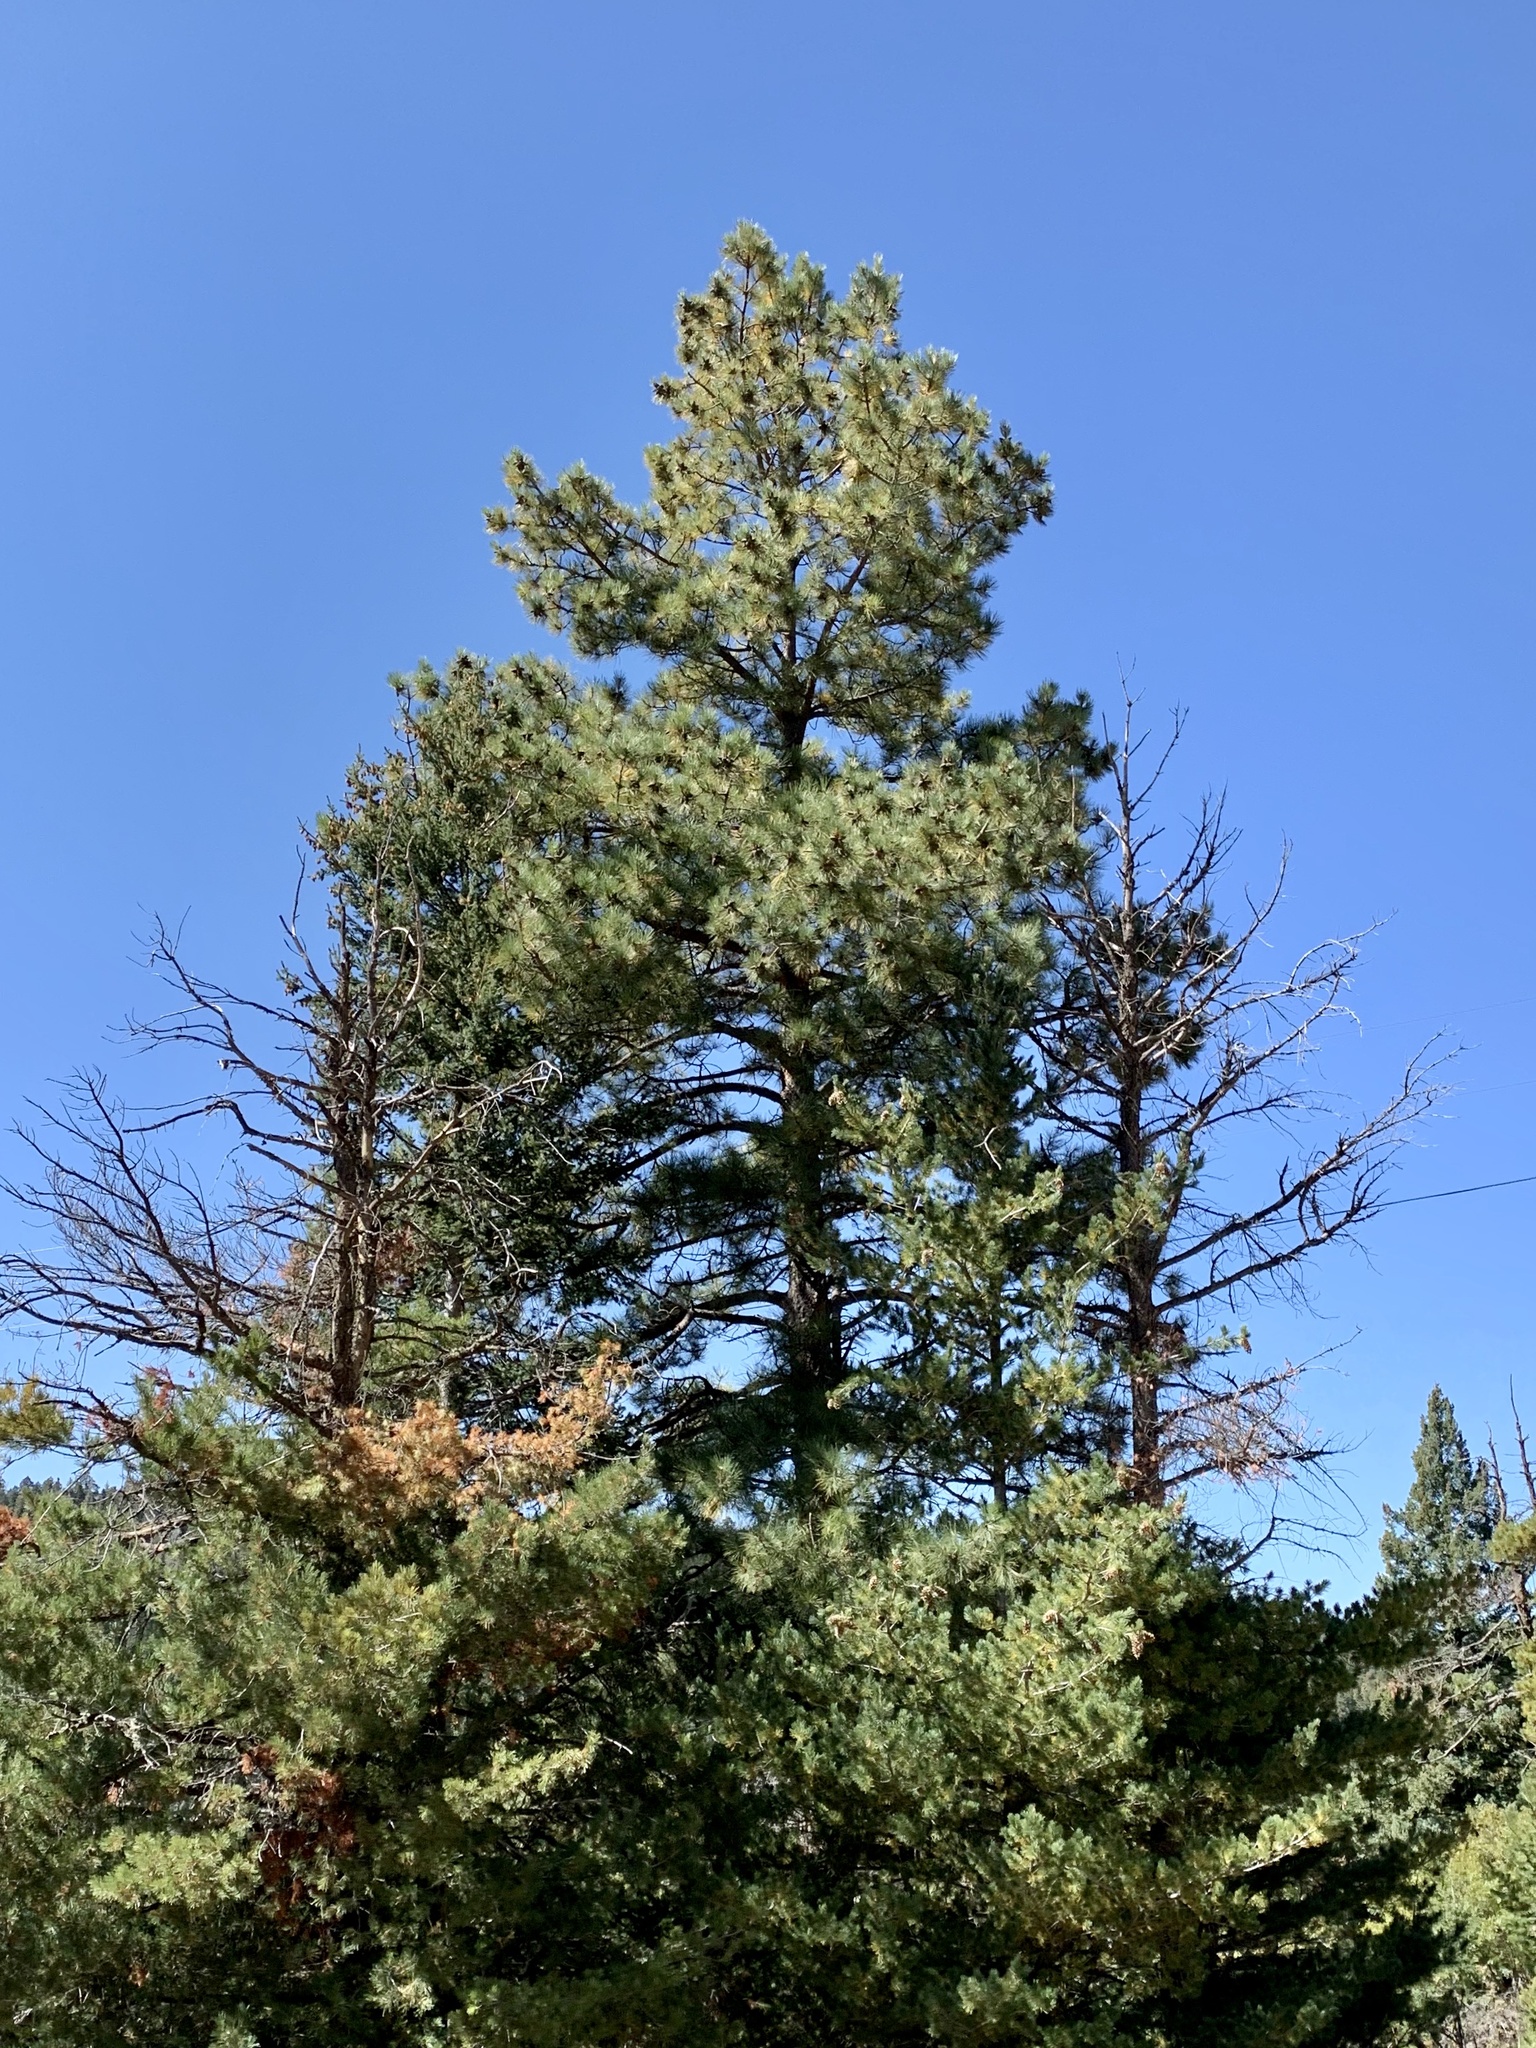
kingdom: Plantae
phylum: Tracheophyta
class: Pinopsida
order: Pinales
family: Pinaceae
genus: Pinus
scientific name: Pinus ponderosa
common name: Western yellow-pine
